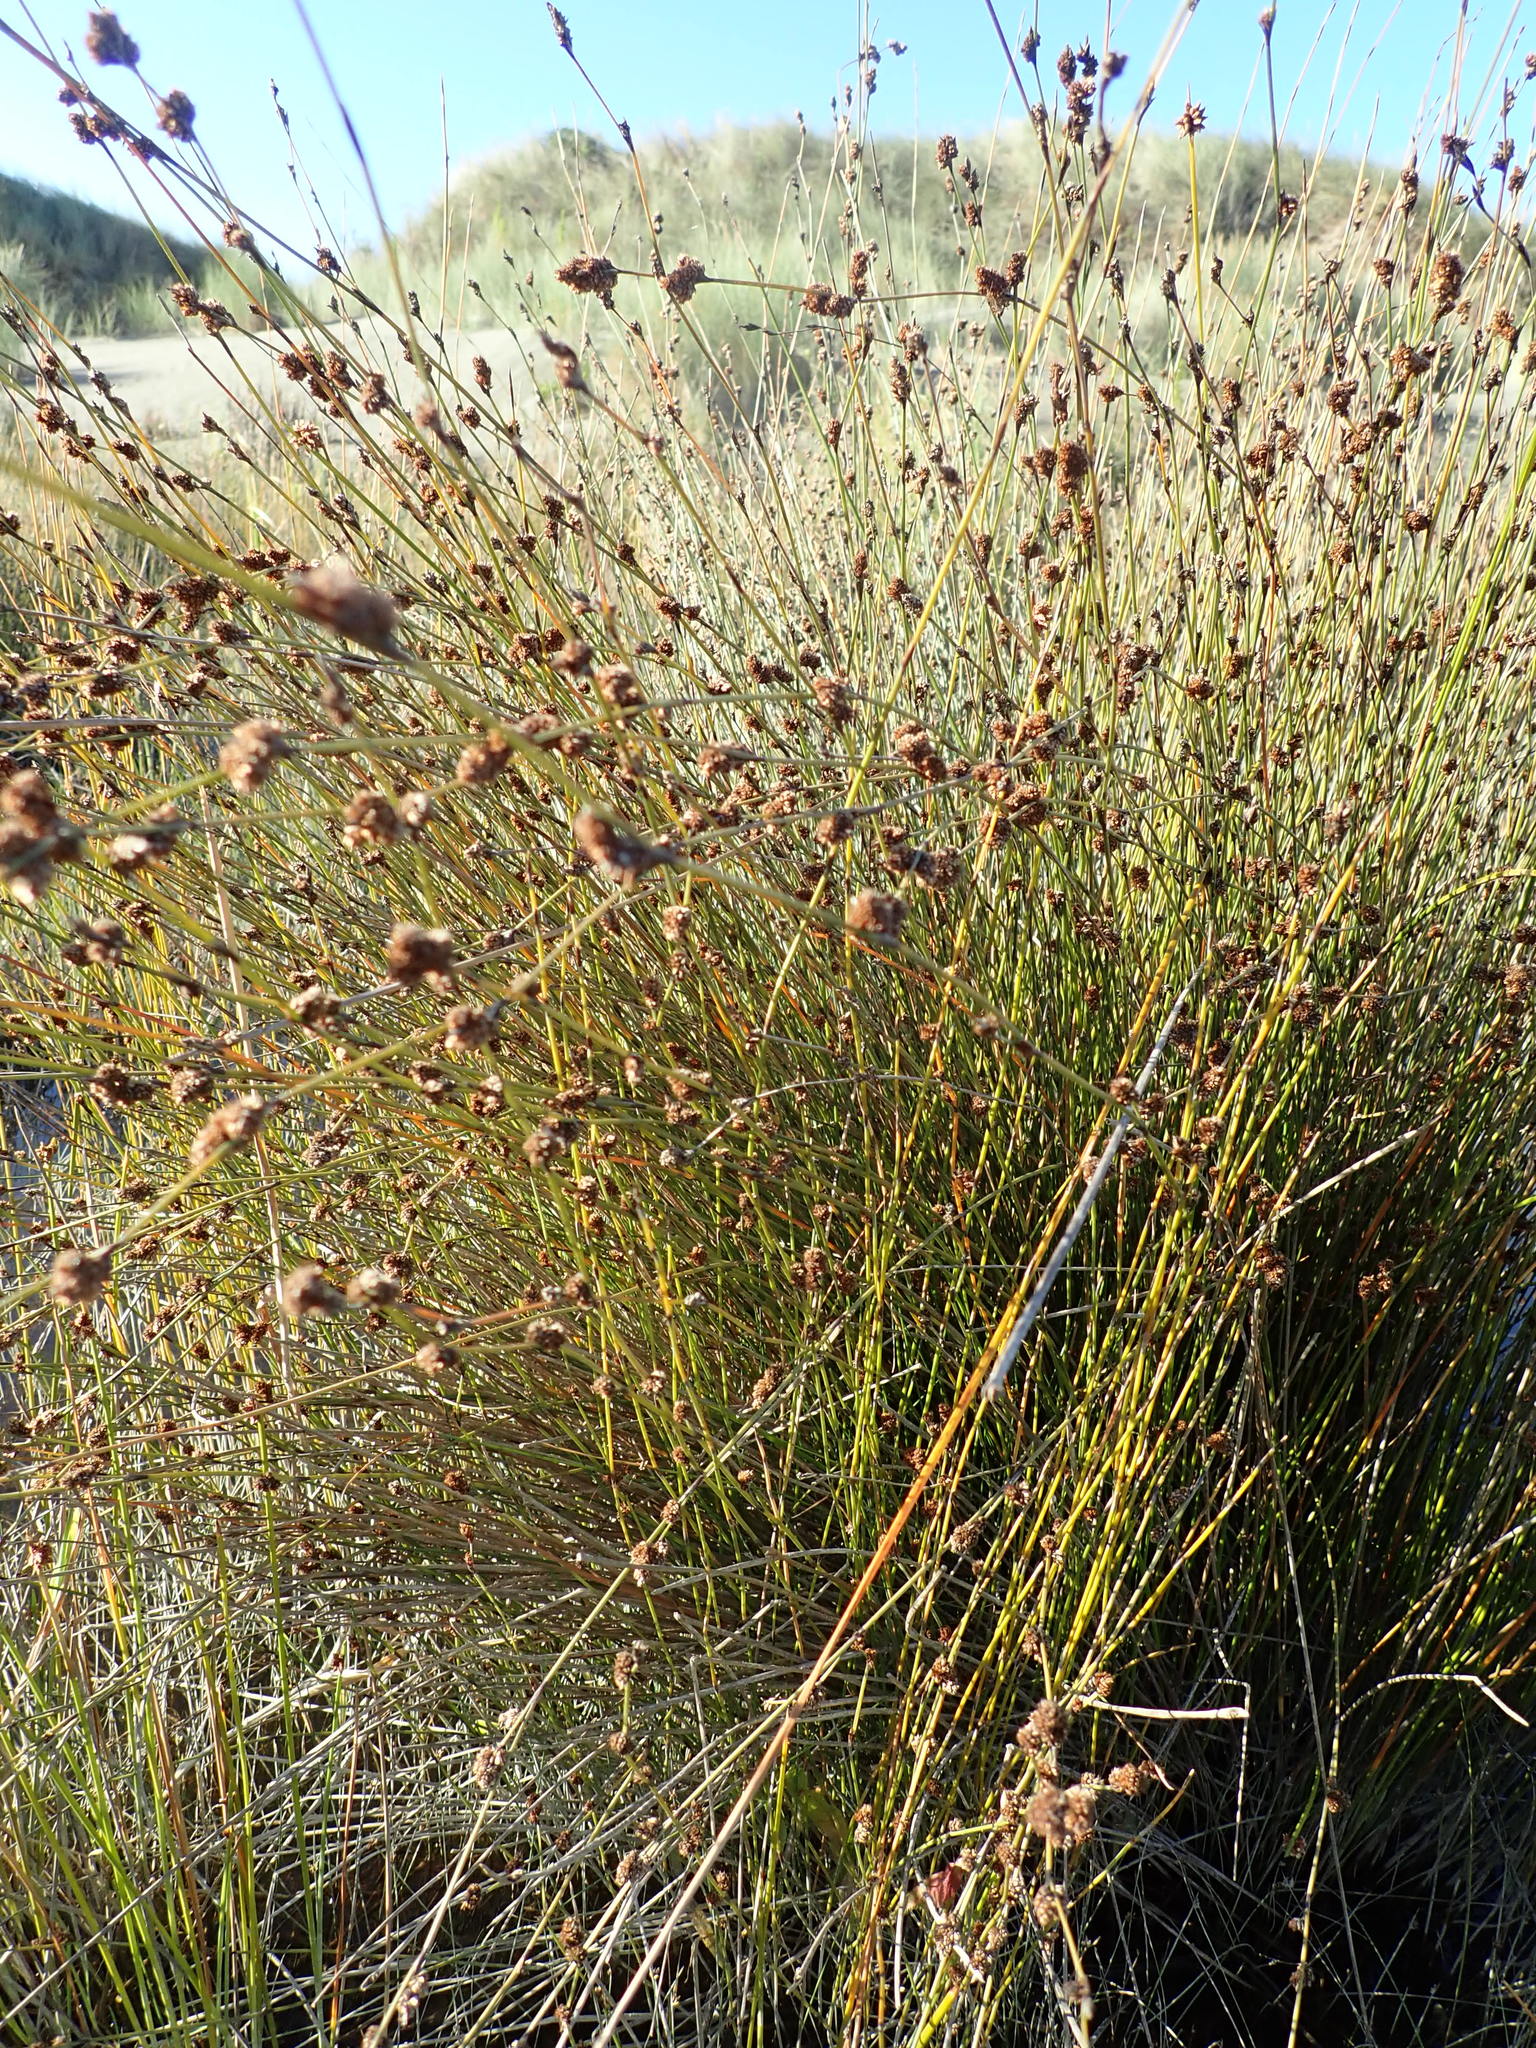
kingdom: Plantae
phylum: Tracheophyta
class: Liliopsida
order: Poales
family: Restionaceae
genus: Apodasmia
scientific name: Apodasmia similis
